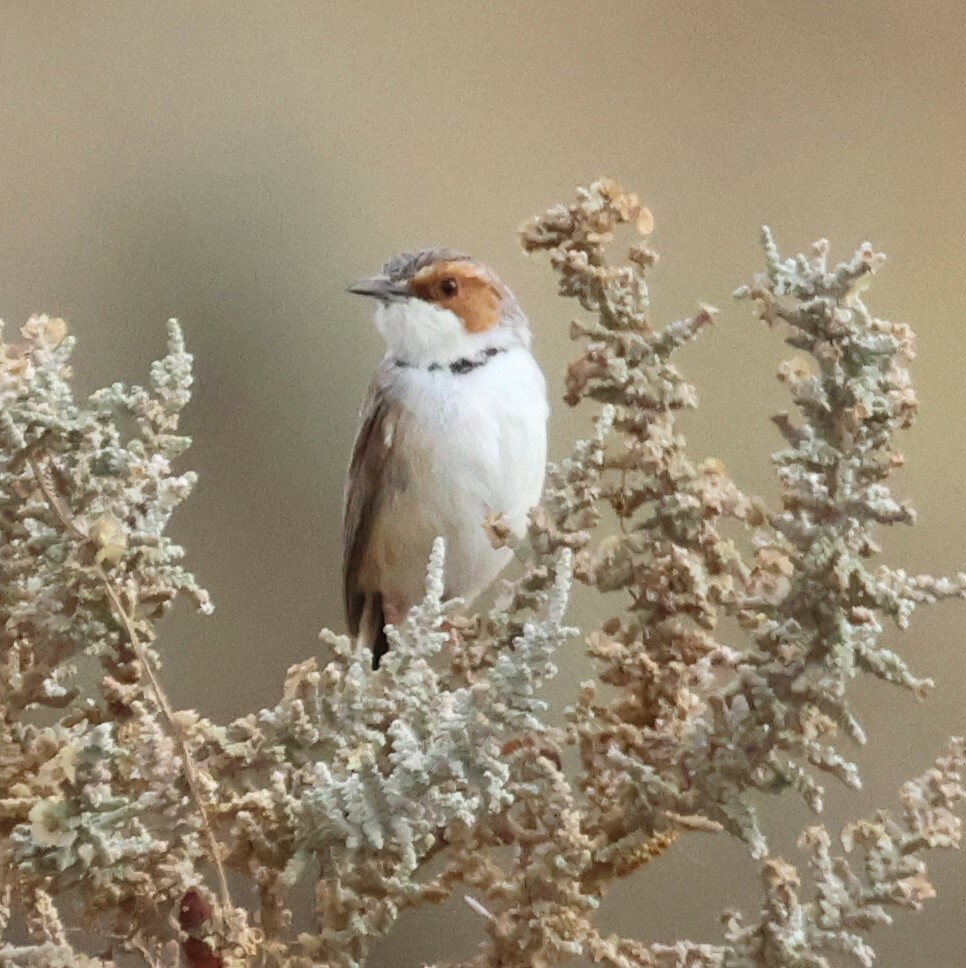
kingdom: Animalia
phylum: Chordata
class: Aves
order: Passeriformes
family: Cisticolidae
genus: Malcorus
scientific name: Malcorus pectoralis
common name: Rufous-eared warbler
